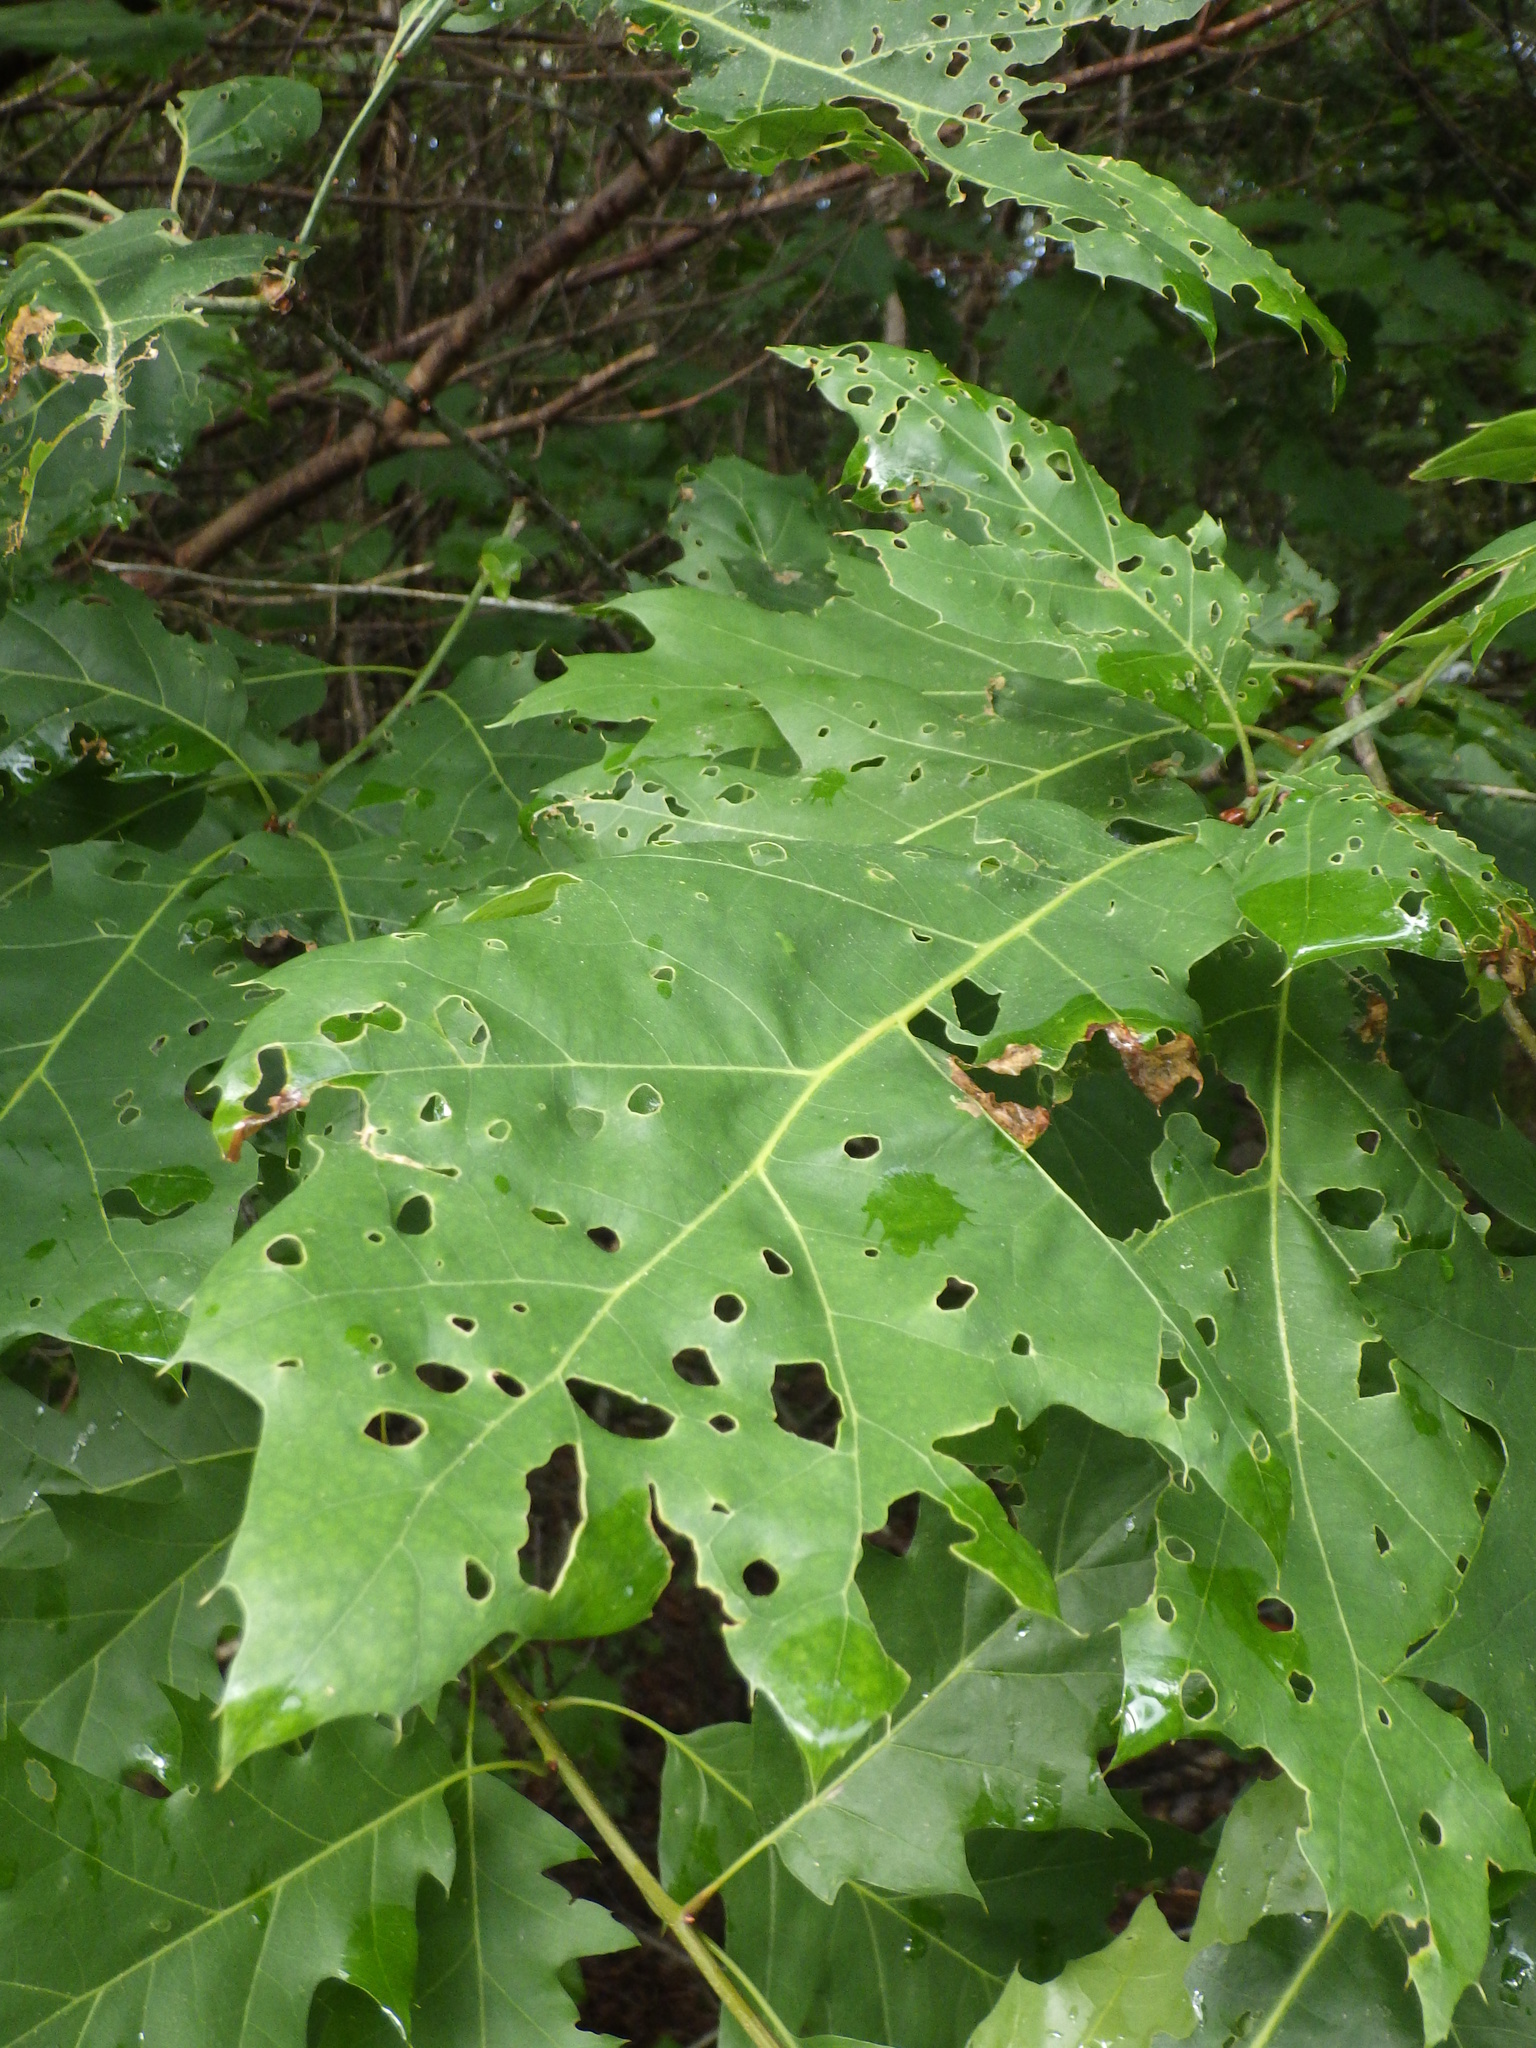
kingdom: Animalia
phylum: Arthropoda
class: Insecta
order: Diptera
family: Agromyzidae
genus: Japanagromyza
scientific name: Japanagromyza viridula
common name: Oak shothole leafminer
